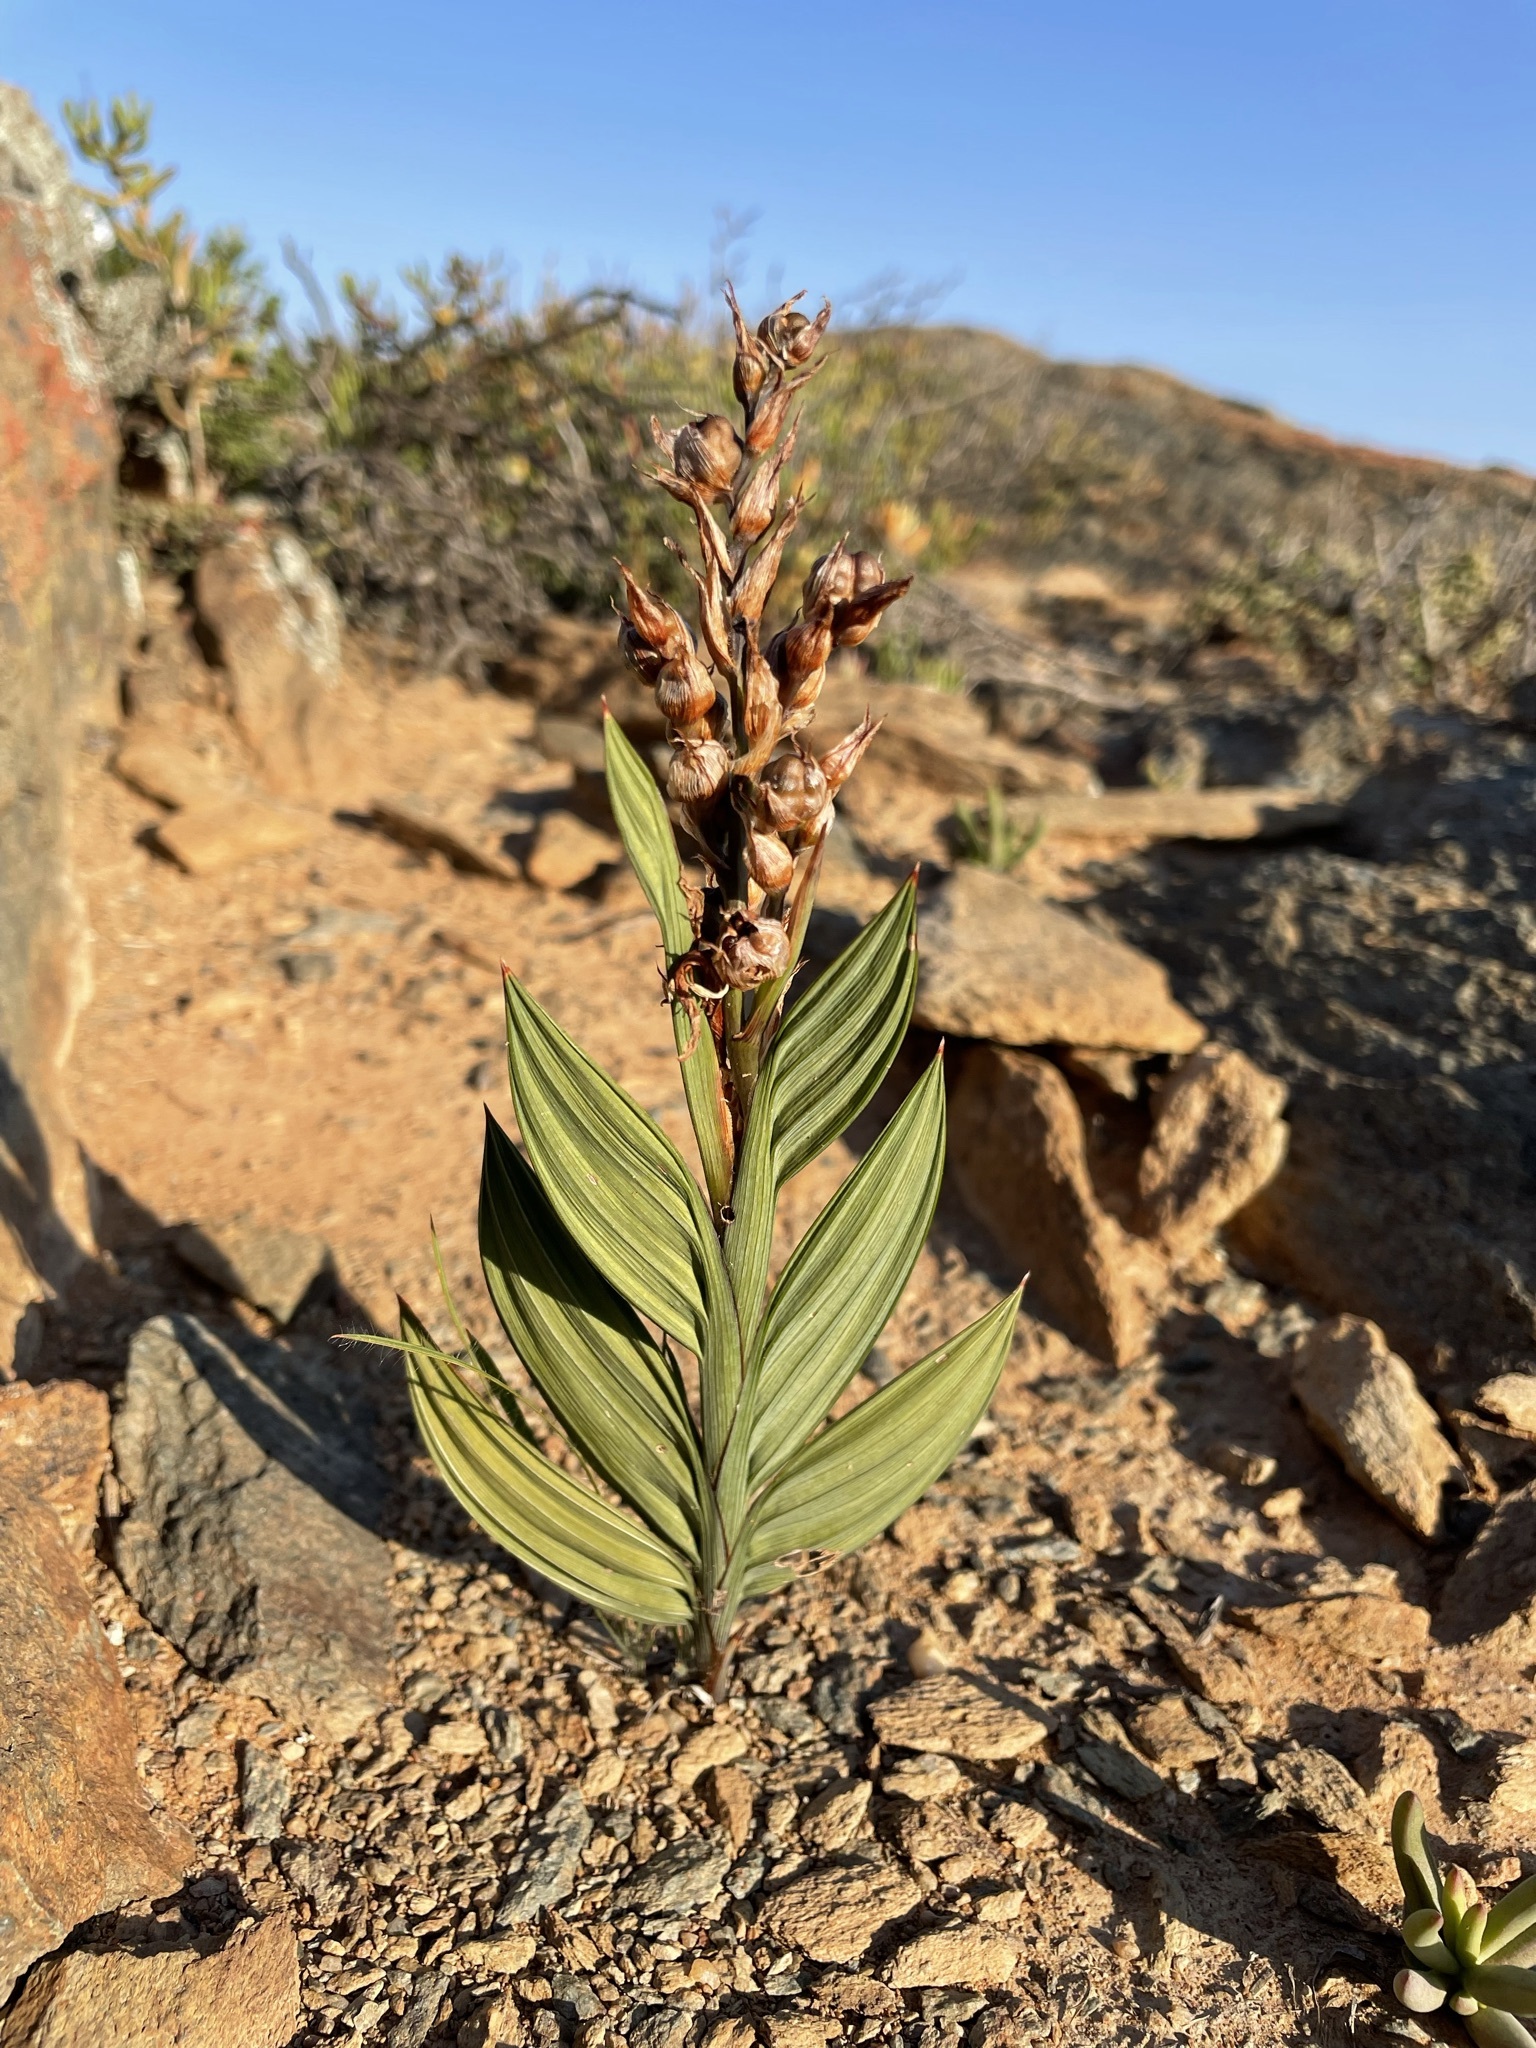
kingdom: Plantae
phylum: Tracheophyta
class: Liliopsida
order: Asparagales
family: Iridaceae
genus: Babiana
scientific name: Babiana salteri
